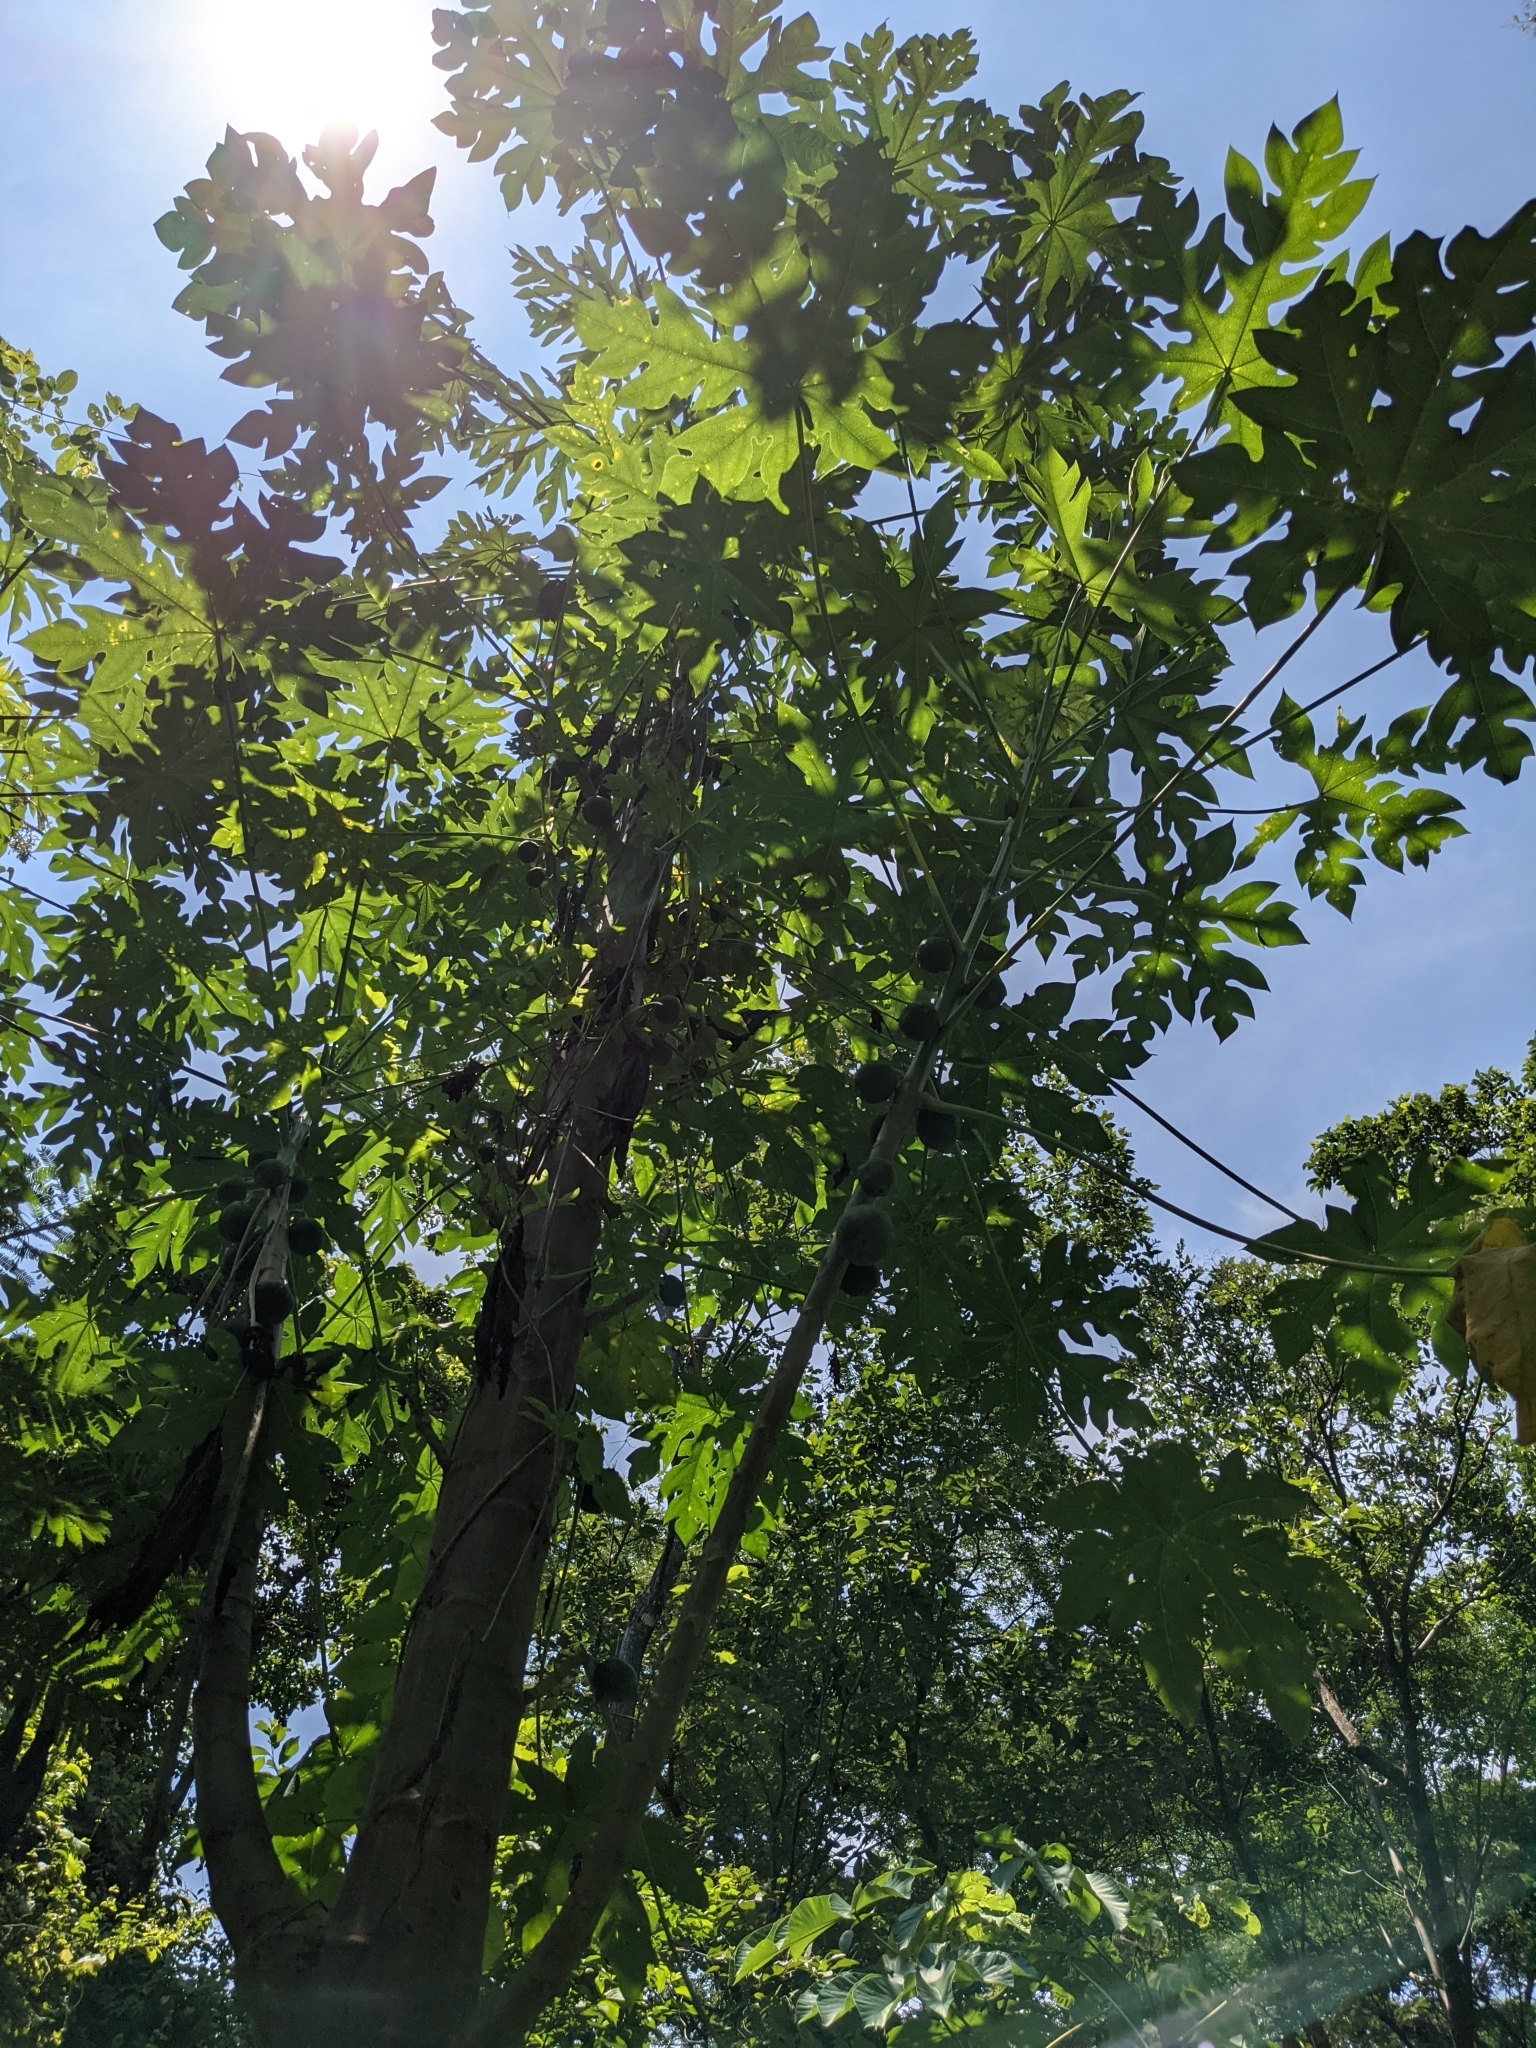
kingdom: Plantae
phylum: Tracheophyta
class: Magnoliopsida
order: Brassicales
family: Caricaceae
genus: Carica
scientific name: Carica papaya
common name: Papaya
